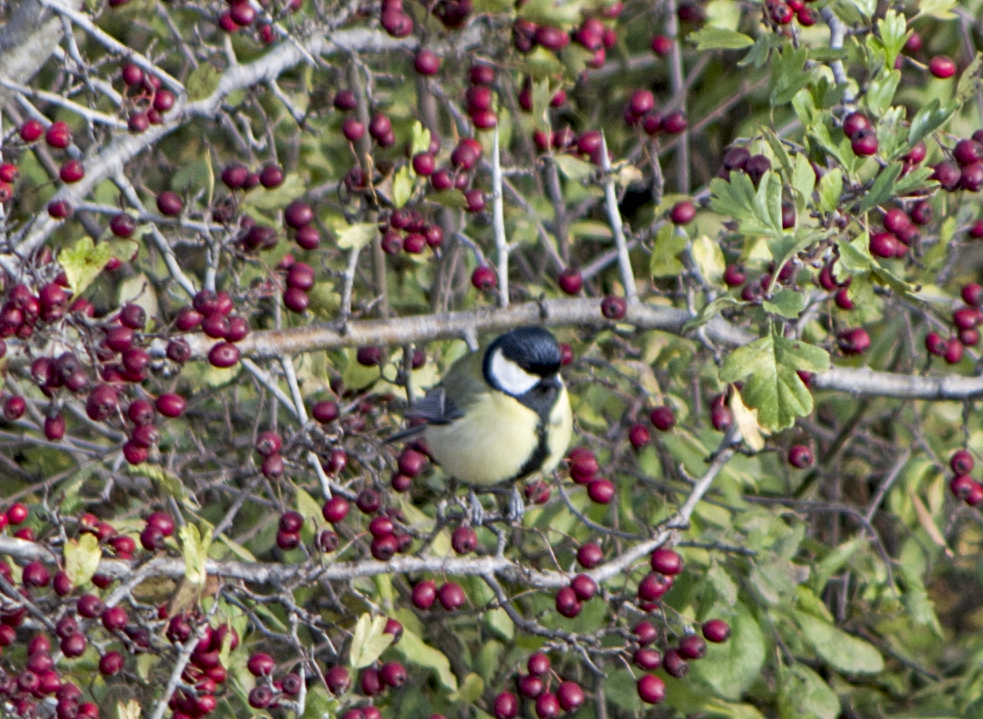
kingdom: Animalia
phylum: Chordata
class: Aves
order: Passeriformes
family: Paridae
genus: Parus
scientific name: Parus major
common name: Great tit
